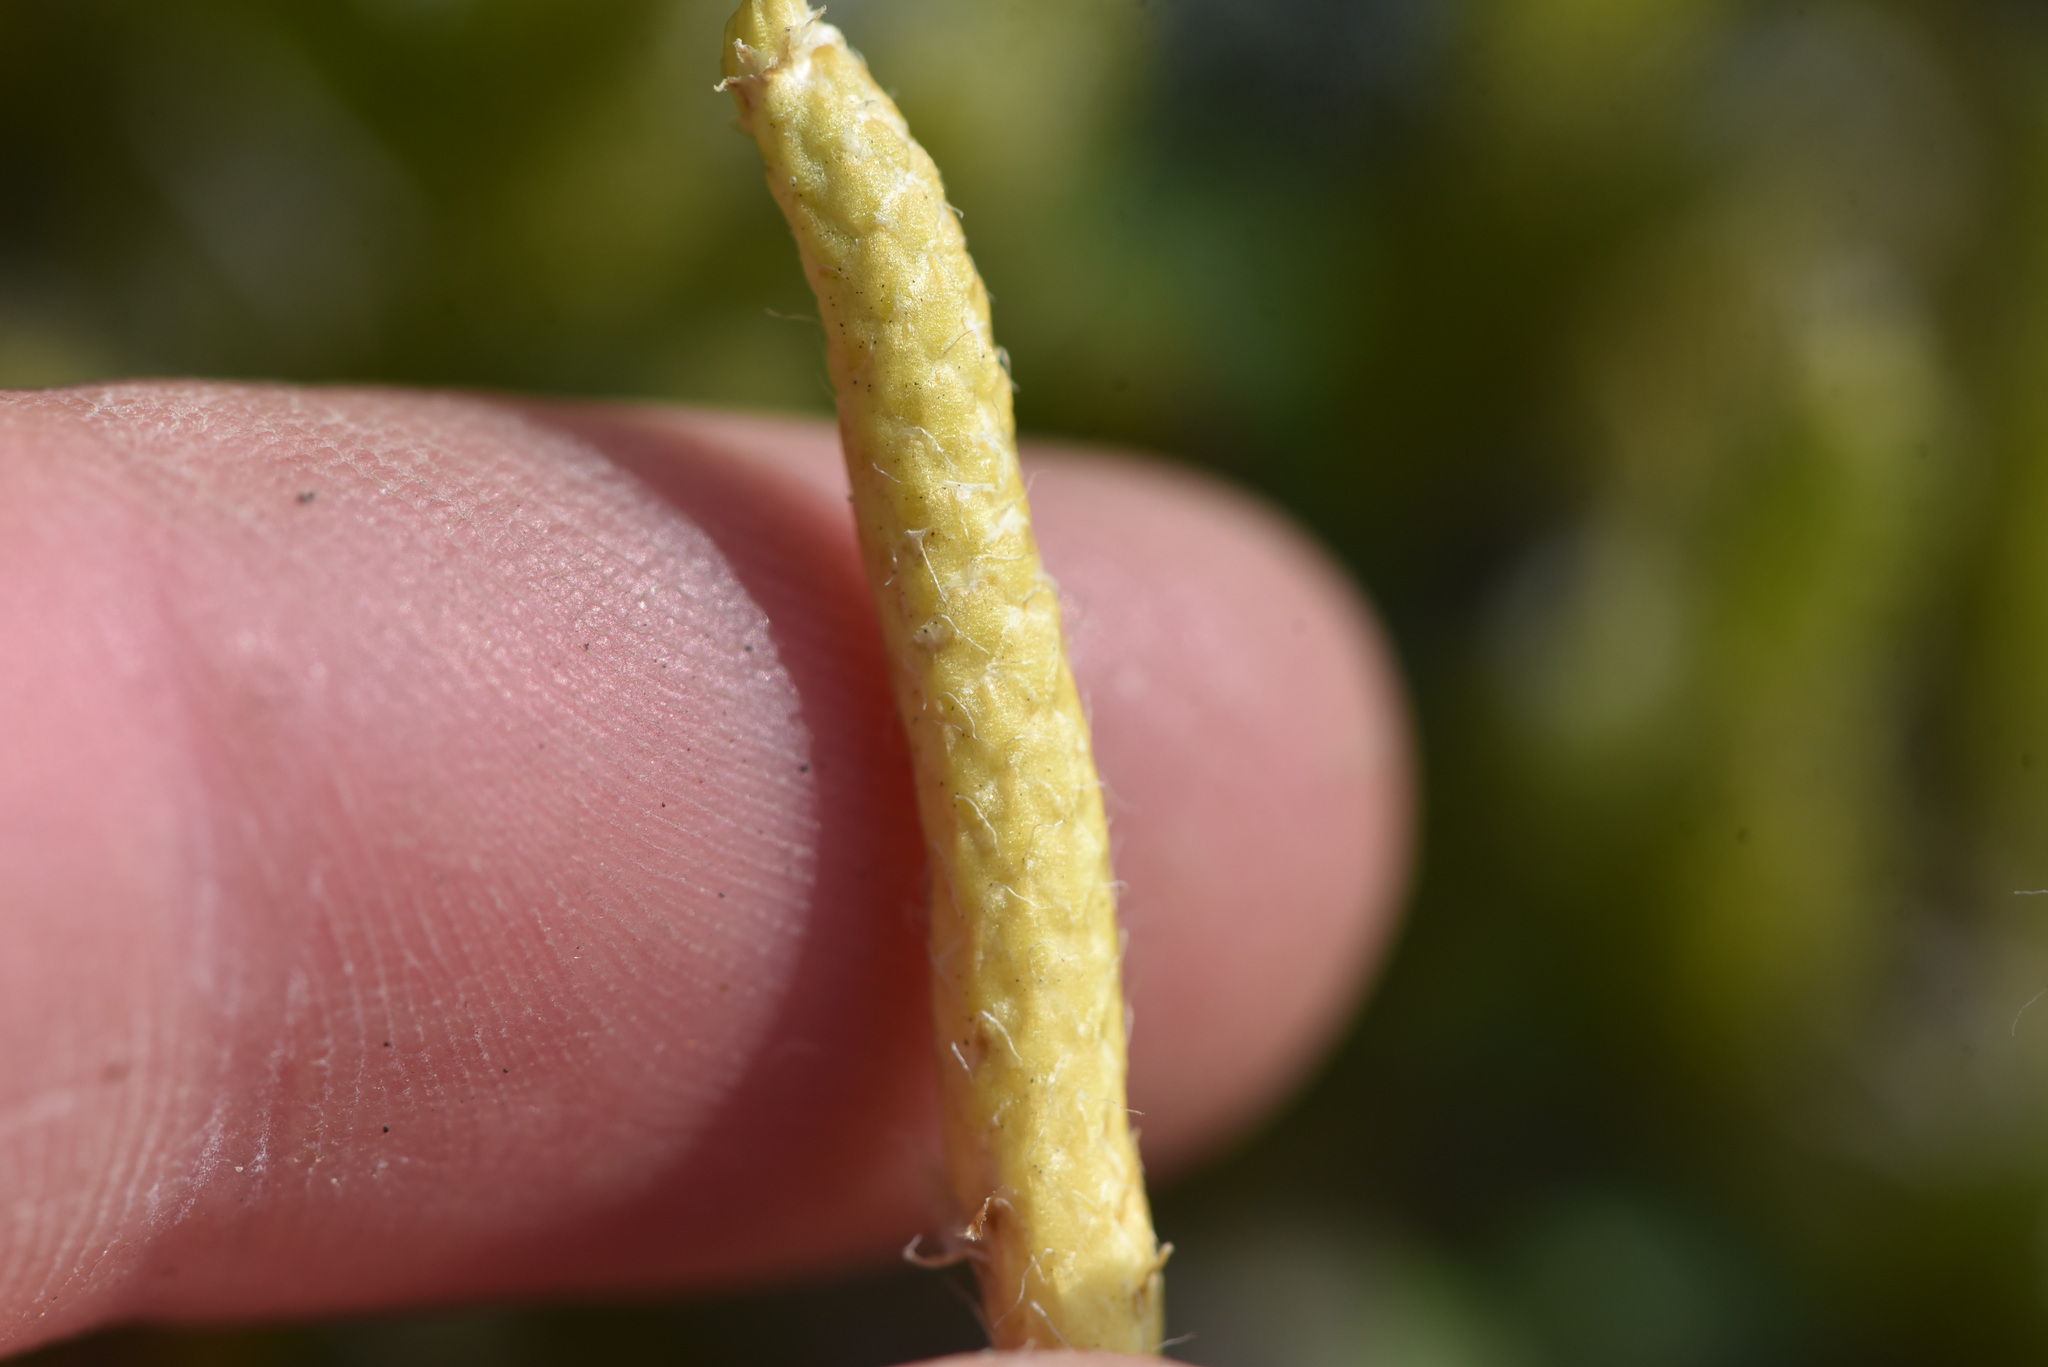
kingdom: Plantae
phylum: Tracheophyta
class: Lycopodiopsida
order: Lycopodiales
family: Lycopodiaceae
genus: Lycopodium
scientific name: Lycopodium lagopus
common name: One-cone clubmoss
